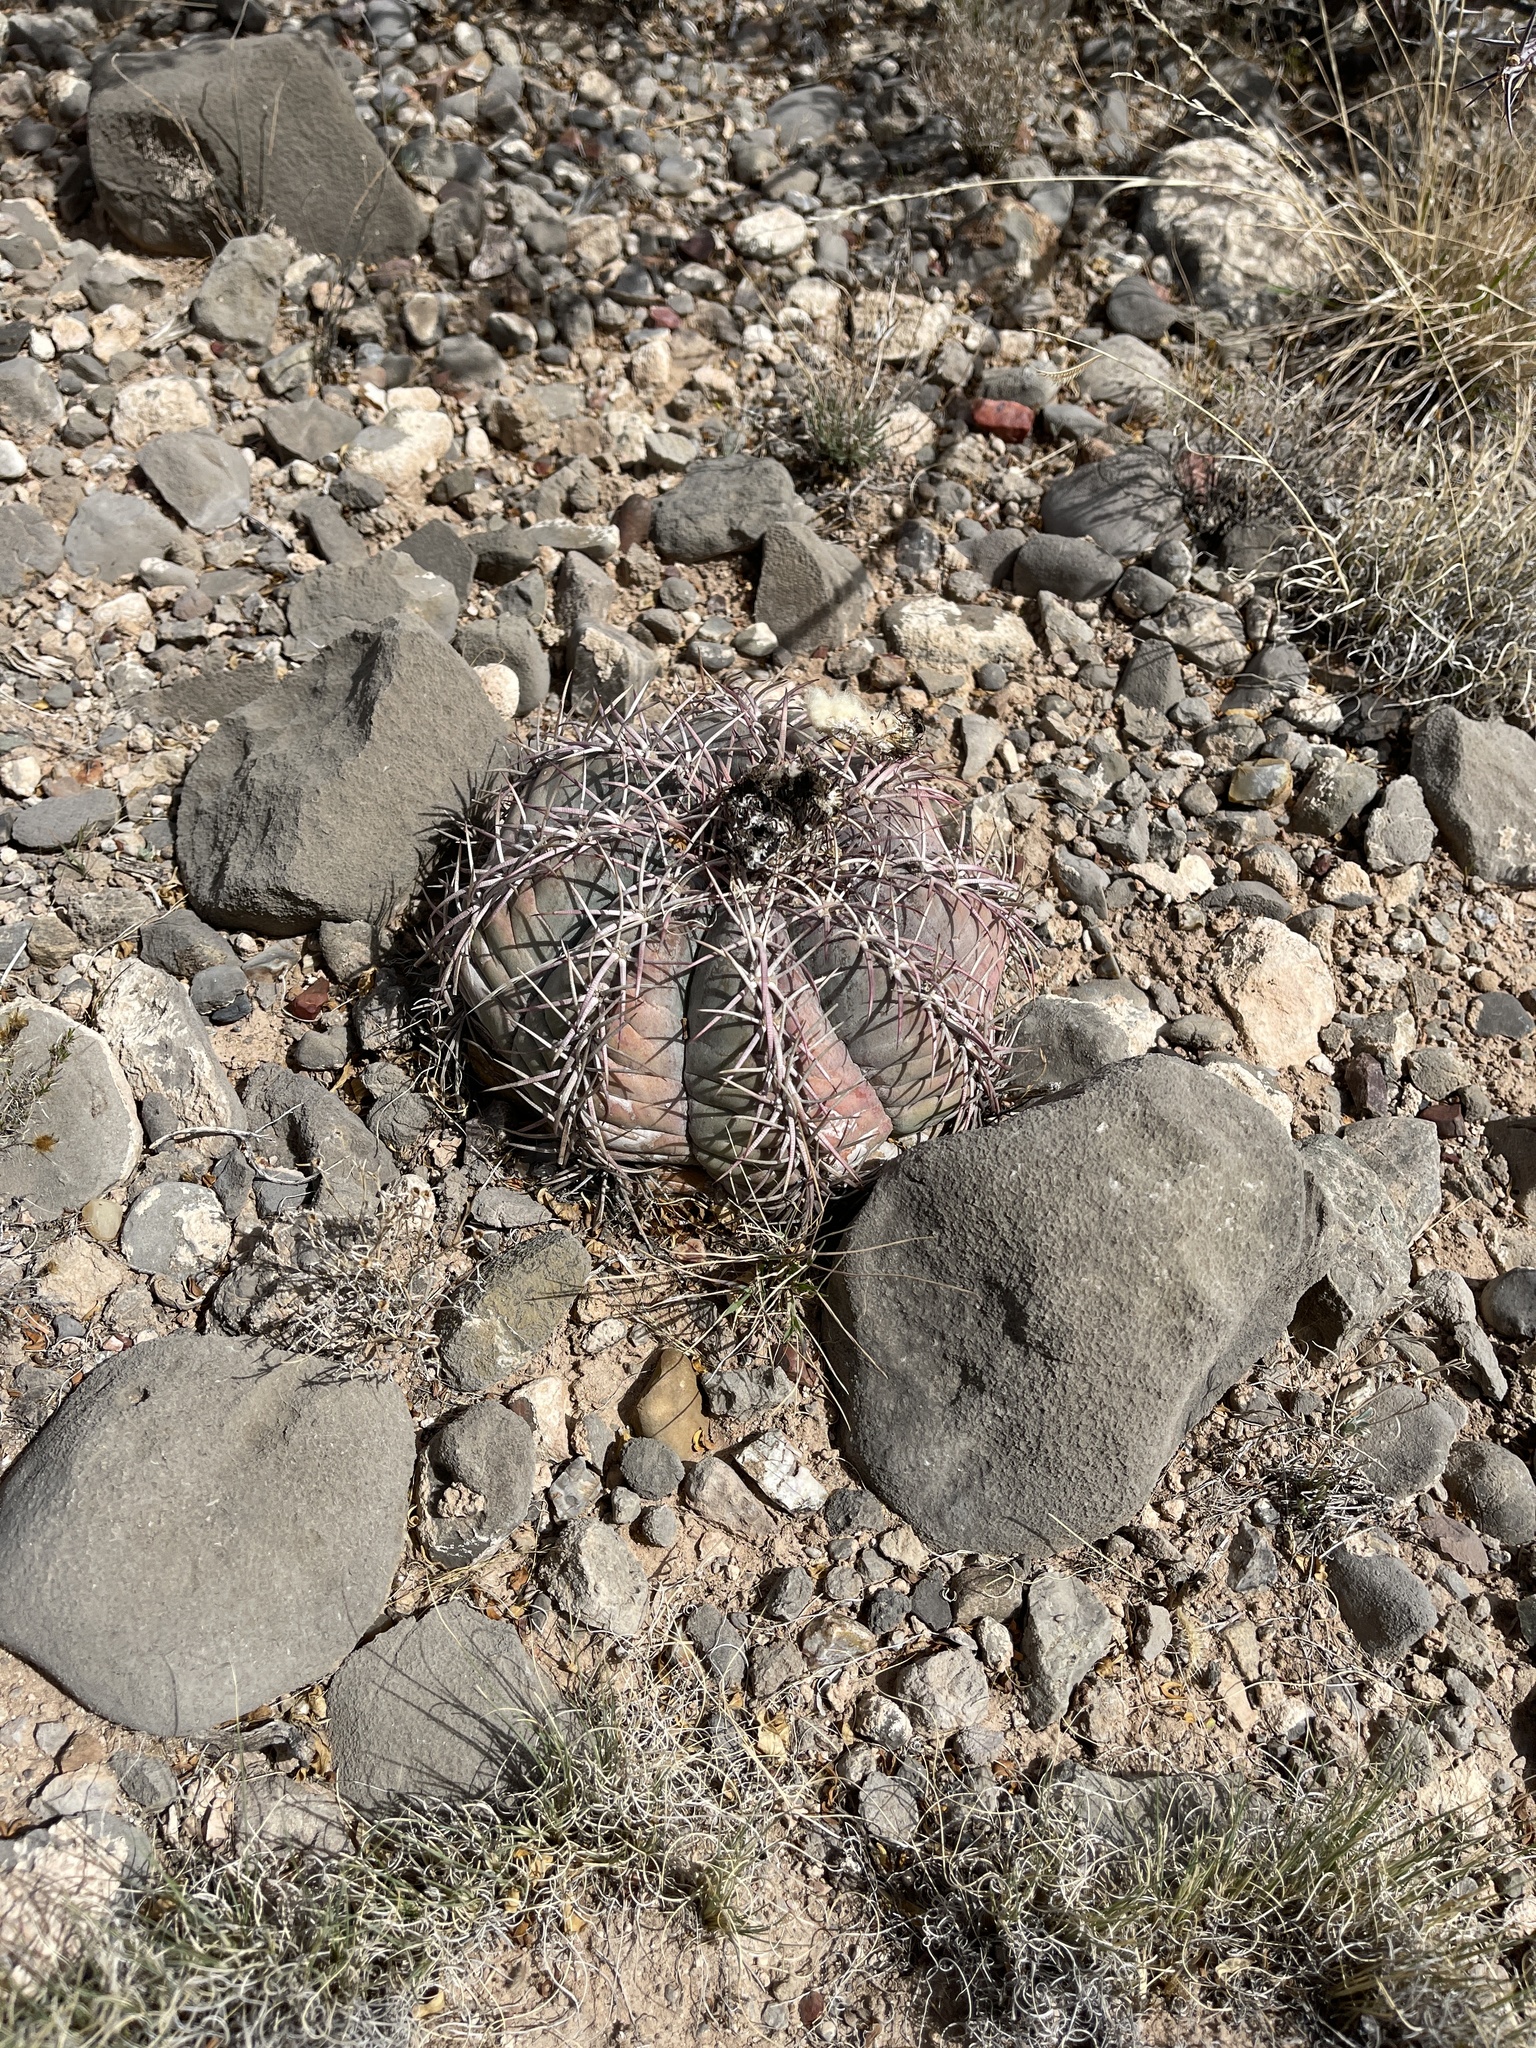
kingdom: Plantae
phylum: Tracheophyta
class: Magnoliopsida
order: Caryophyllales
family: Cactaceae
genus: Echinocactus
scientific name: Echinocactus horizonthalonius
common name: Devilshead
